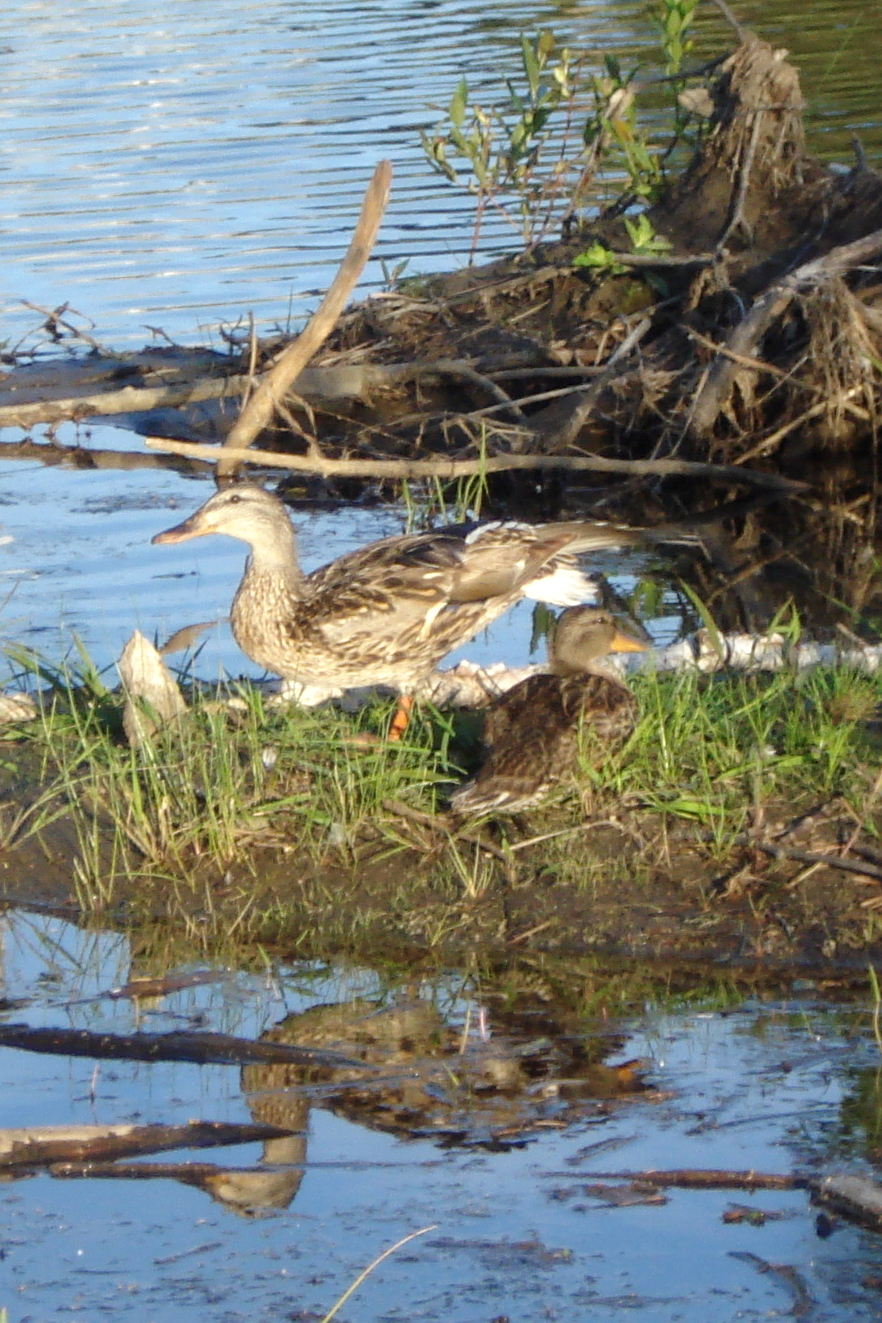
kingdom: Animalia
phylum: Chordata
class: Aves
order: Anseriformes
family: Anatidae
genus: Anas
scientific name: Anas platyrhynchos
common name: Mallard
